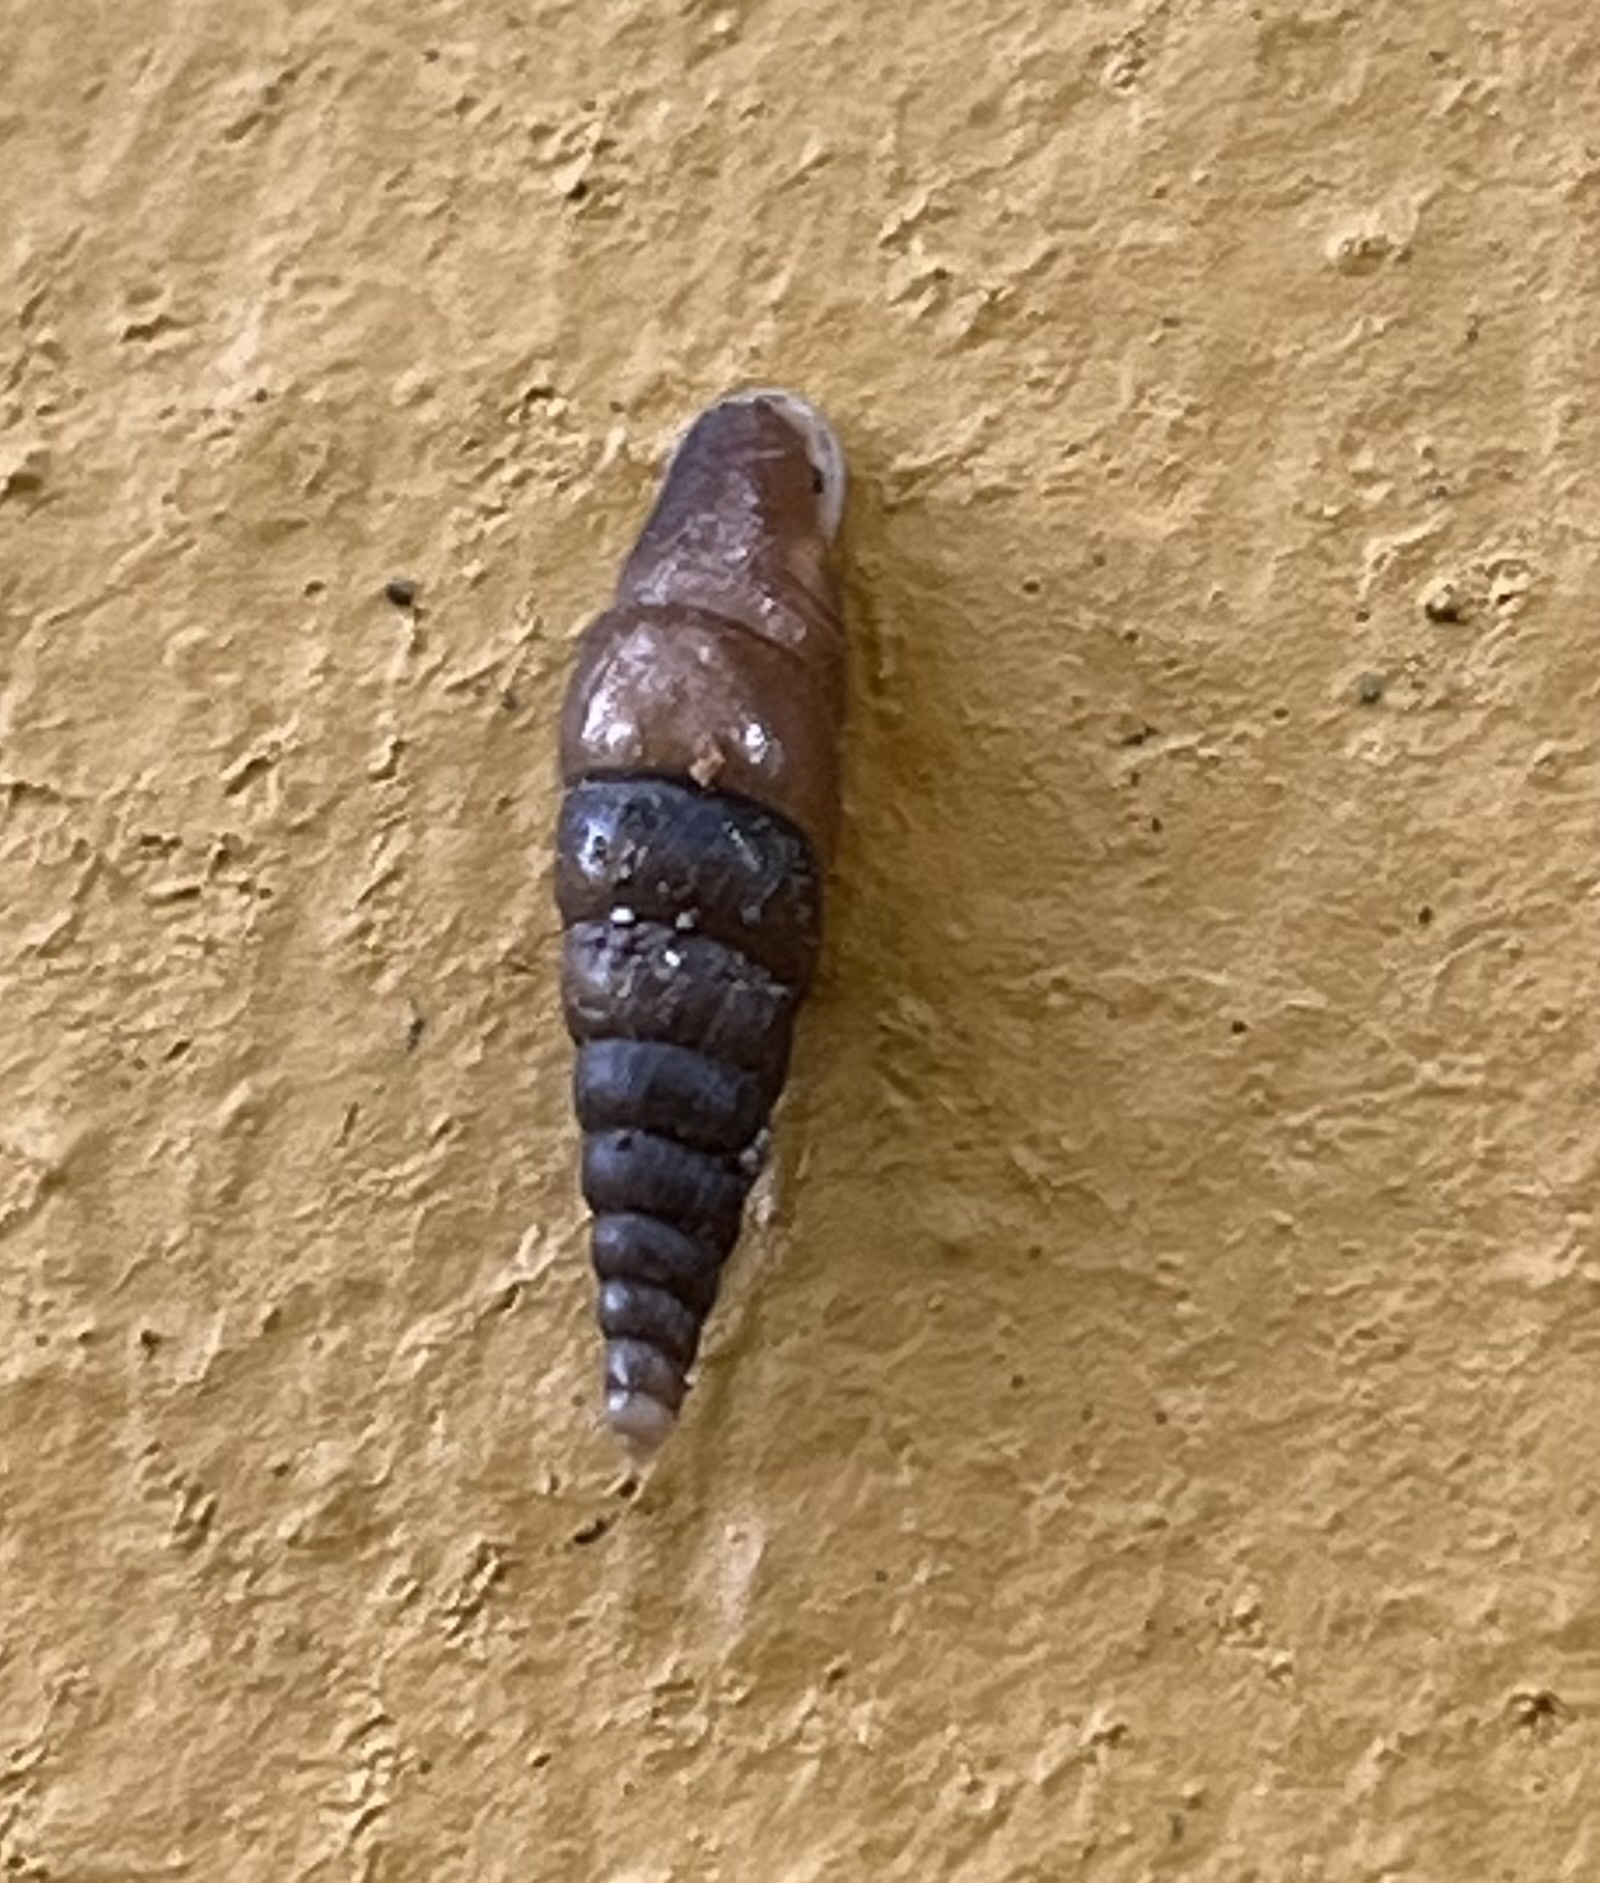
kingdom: Animalia
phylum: Mollusca
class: Gastropoda
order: Stylommatophora
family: Clausiliidae
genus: Euphaedusa
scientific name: Euphaedusa aculus
